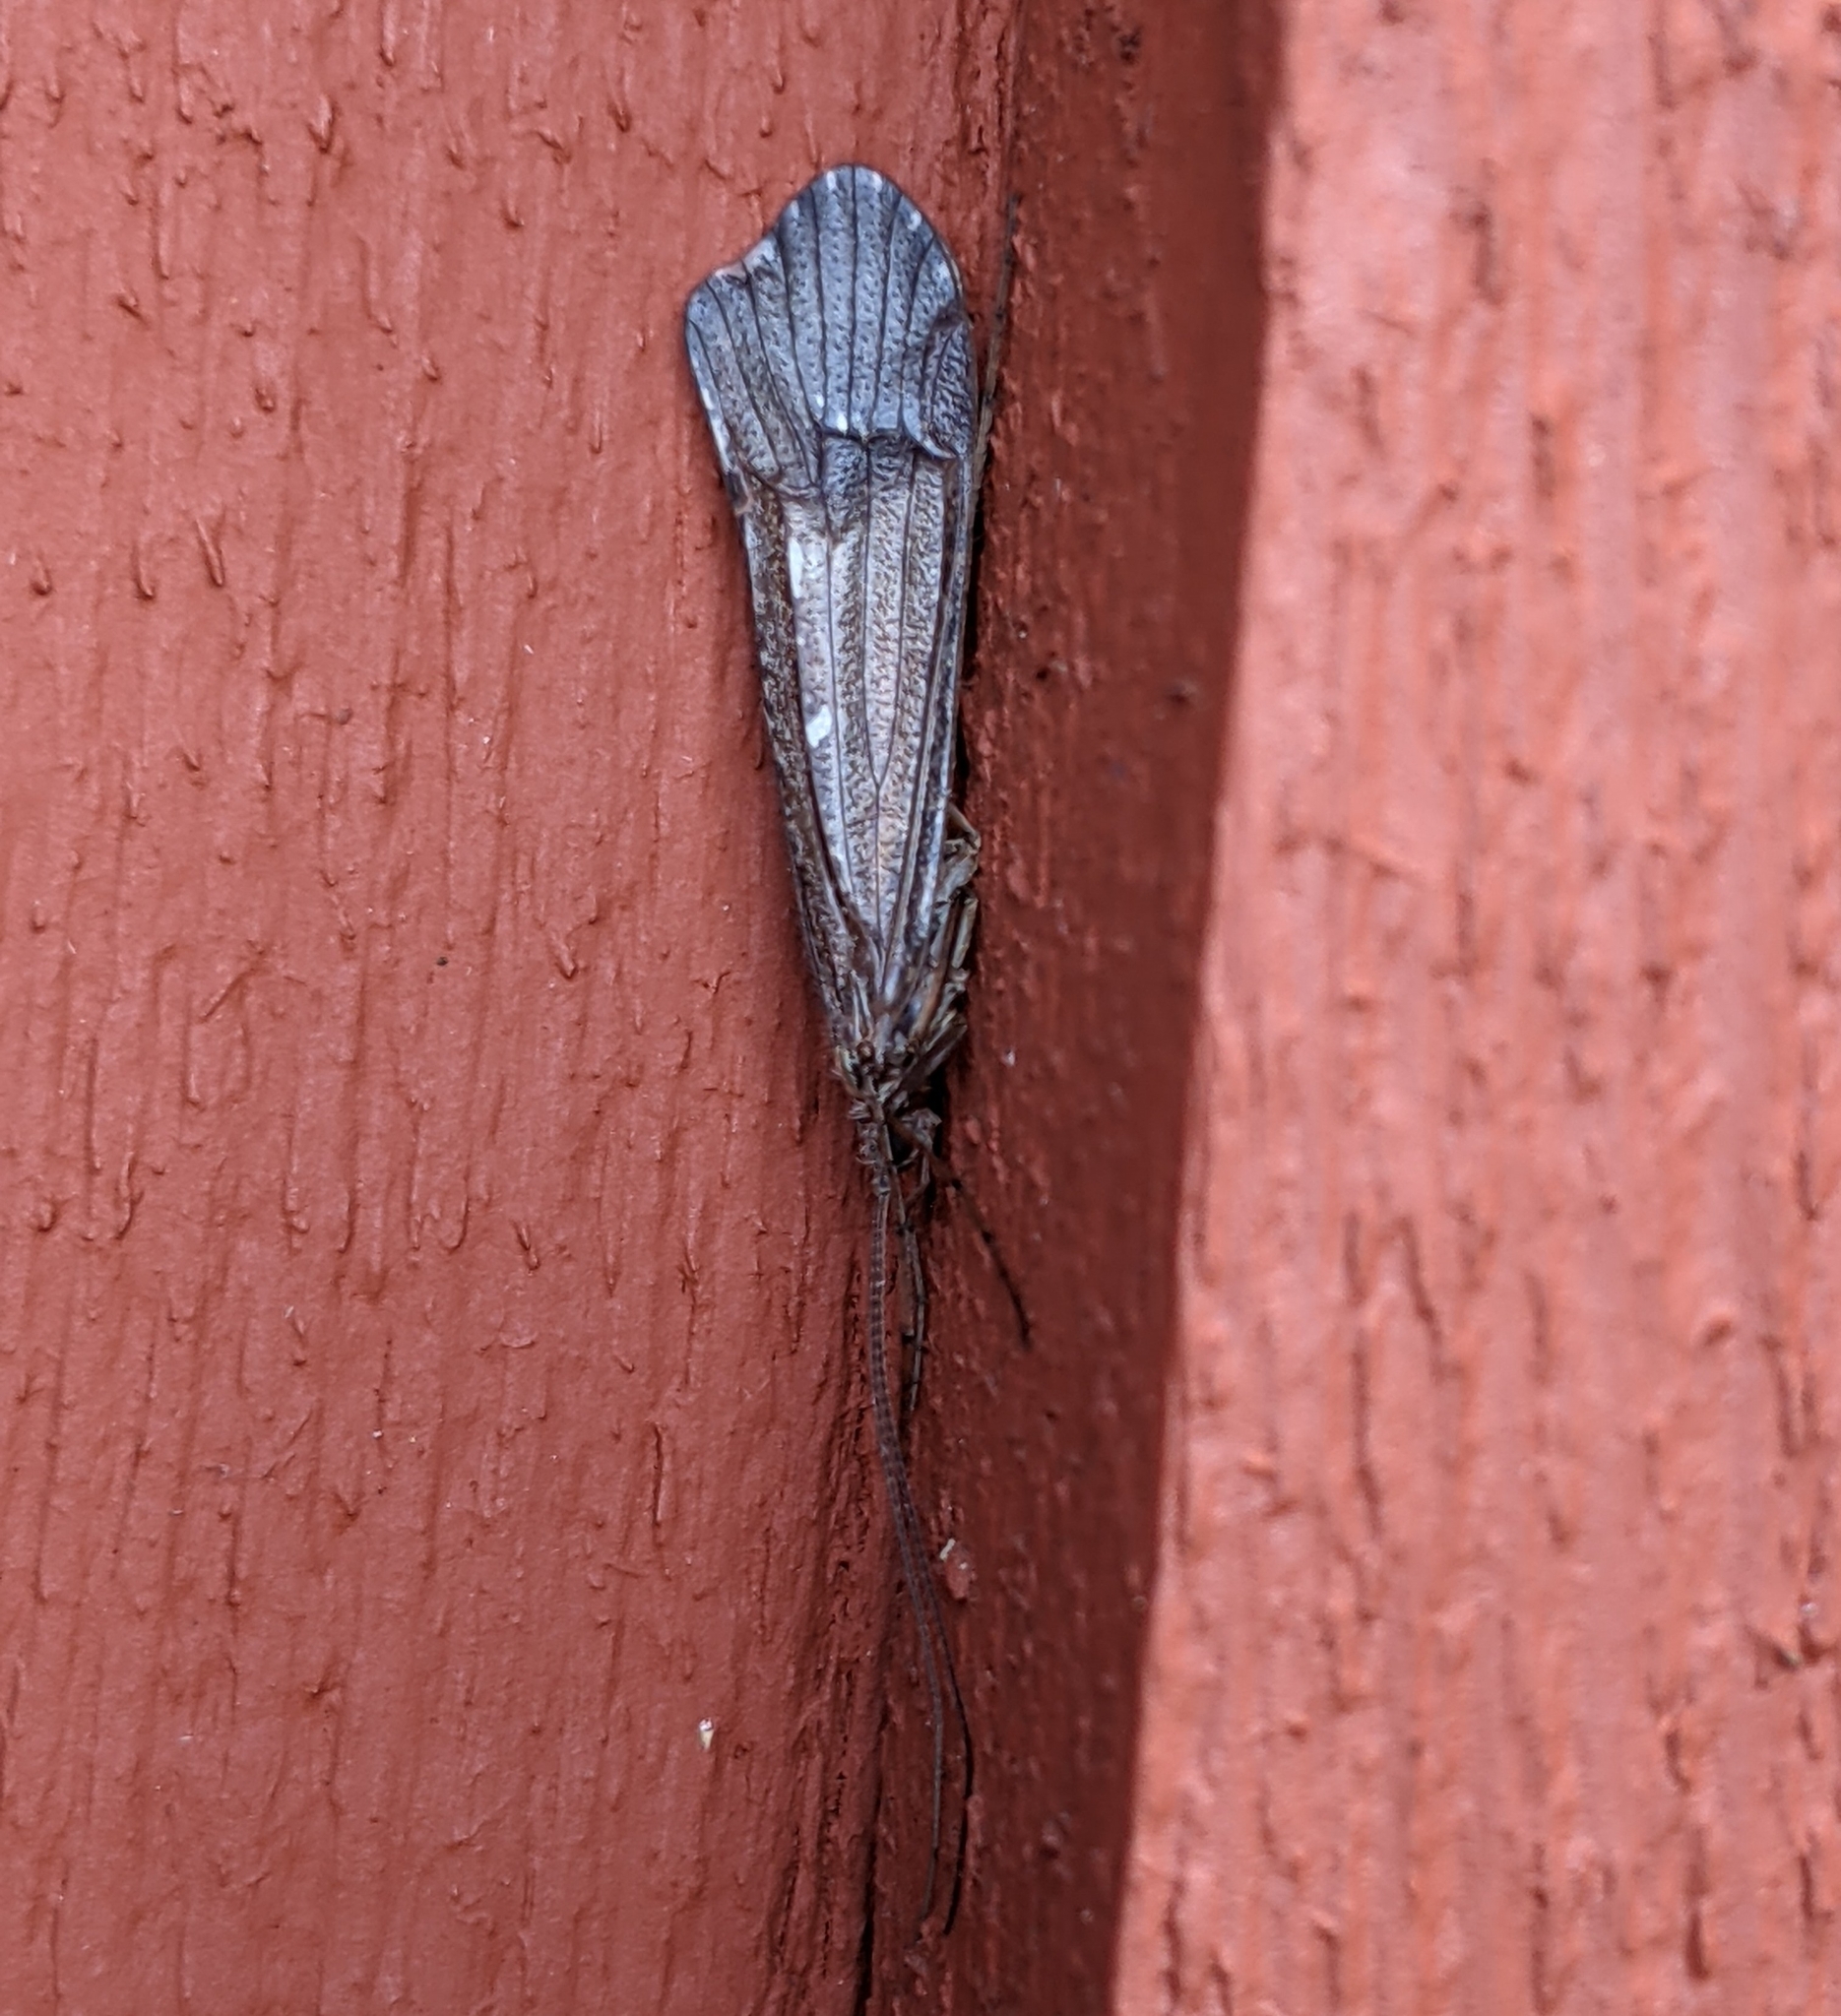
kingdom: Animalia
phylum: Arthropoda
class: Insecta
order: Trichoptera
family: Limnephilidae
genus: Glyphopsyche
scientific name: Glyphopsyche irrorata
